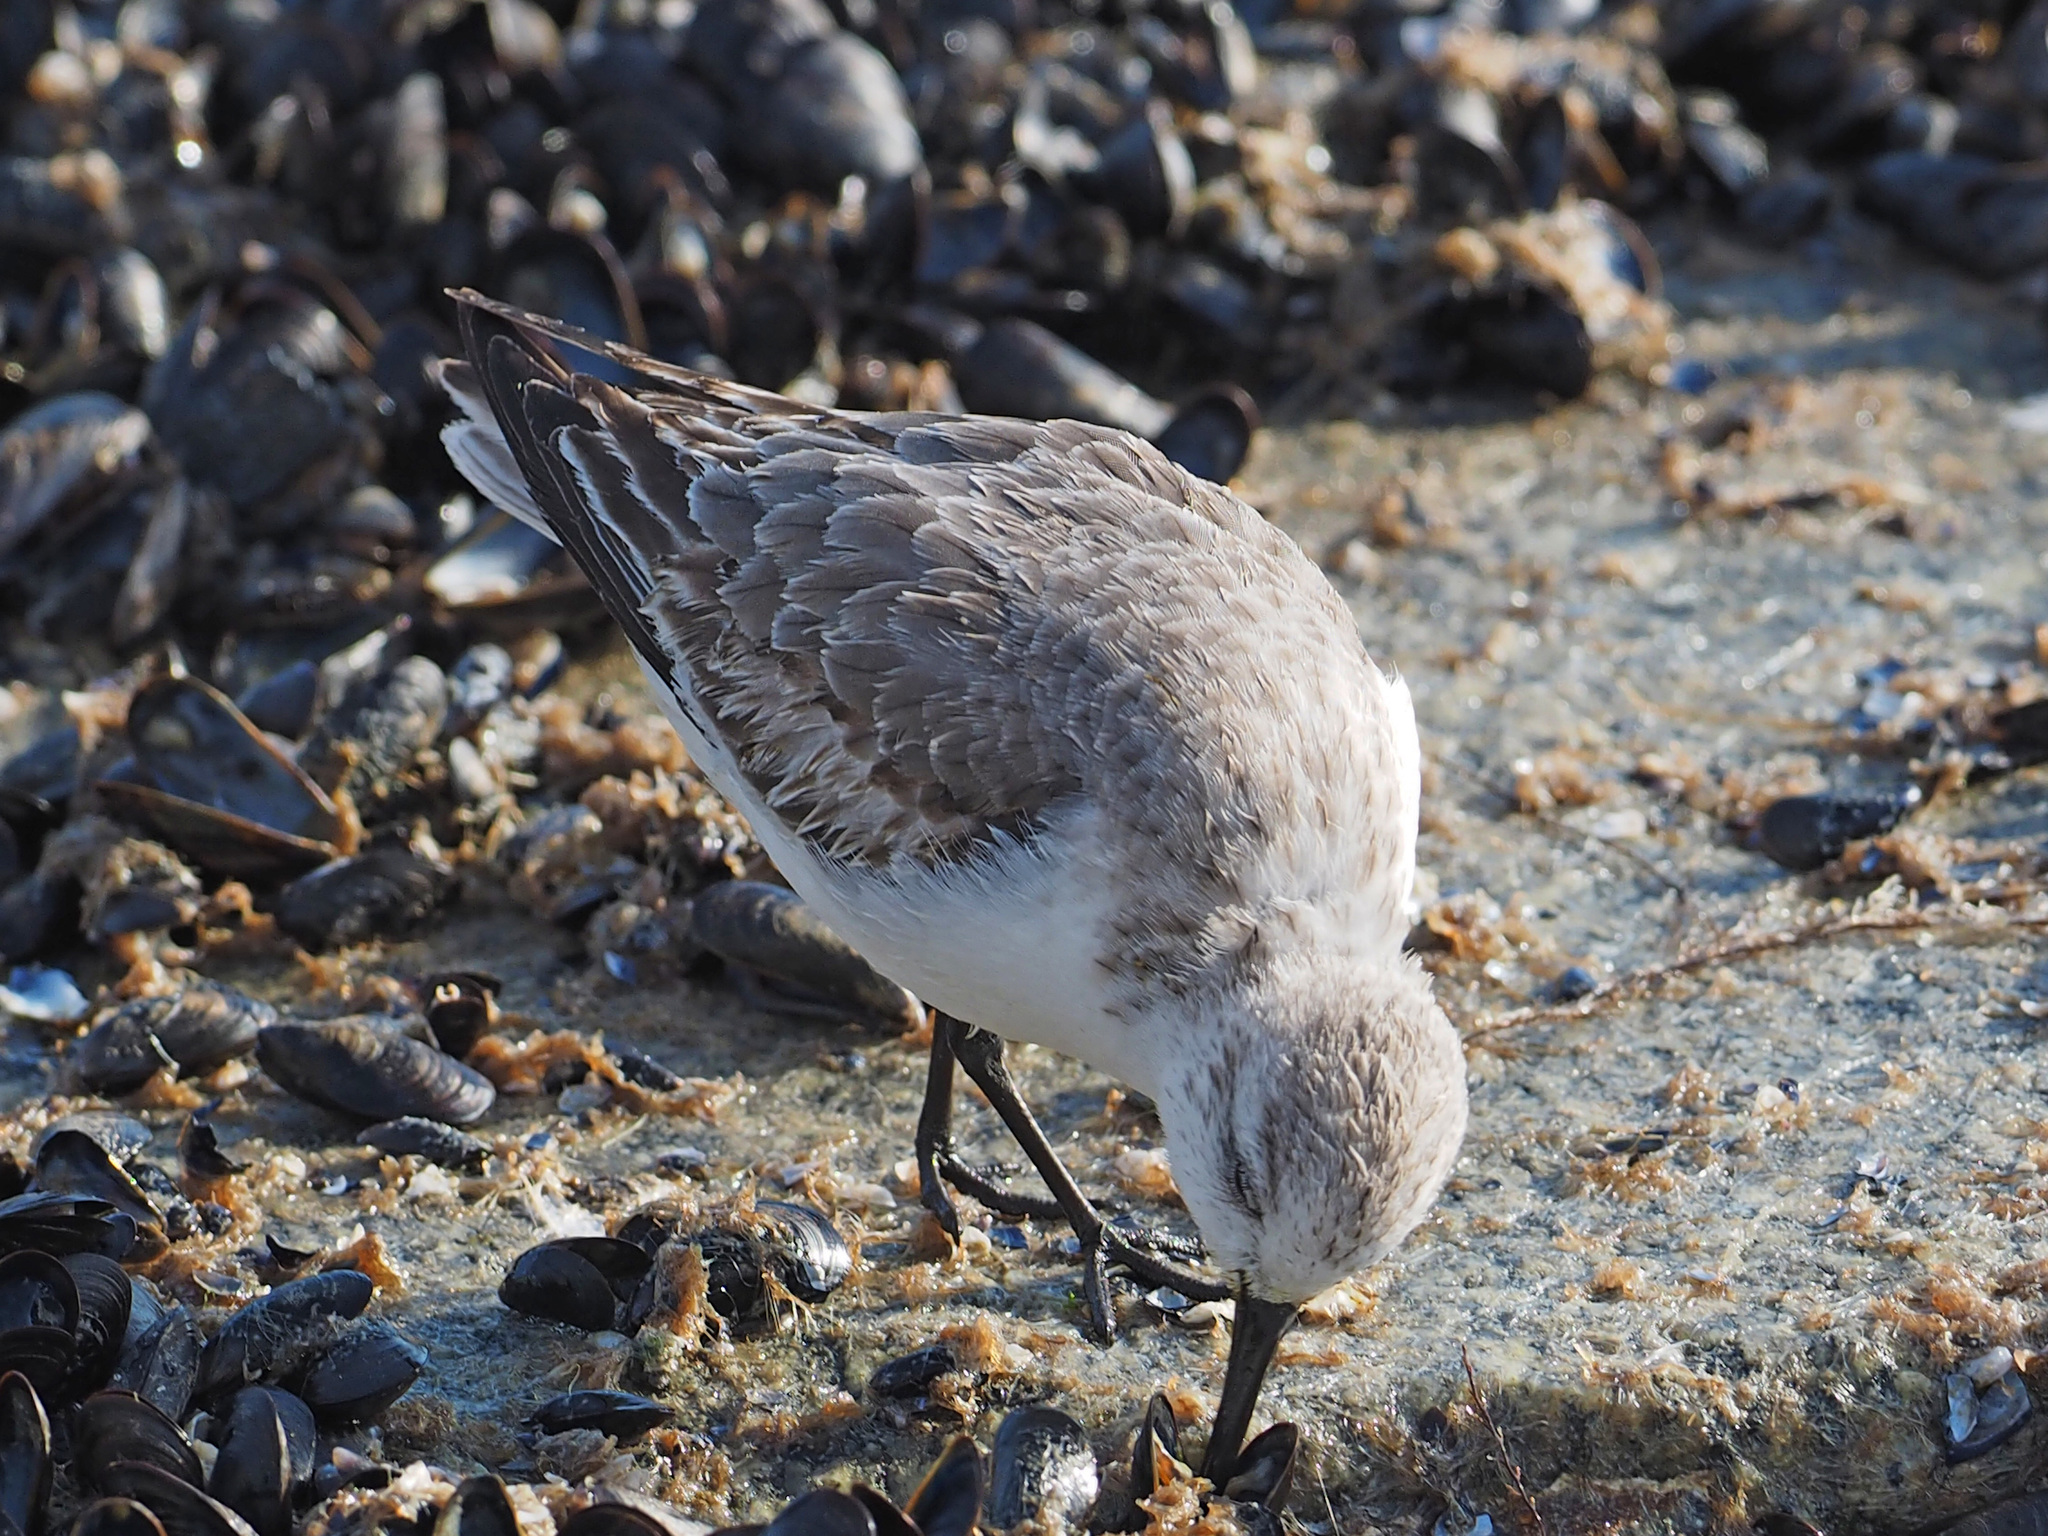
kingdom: Animalia
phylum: Chordata
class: Aves
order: Charadriiformes
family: Scolopacidae
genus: Calidris
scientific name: Calidris alba
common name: Sanderling
